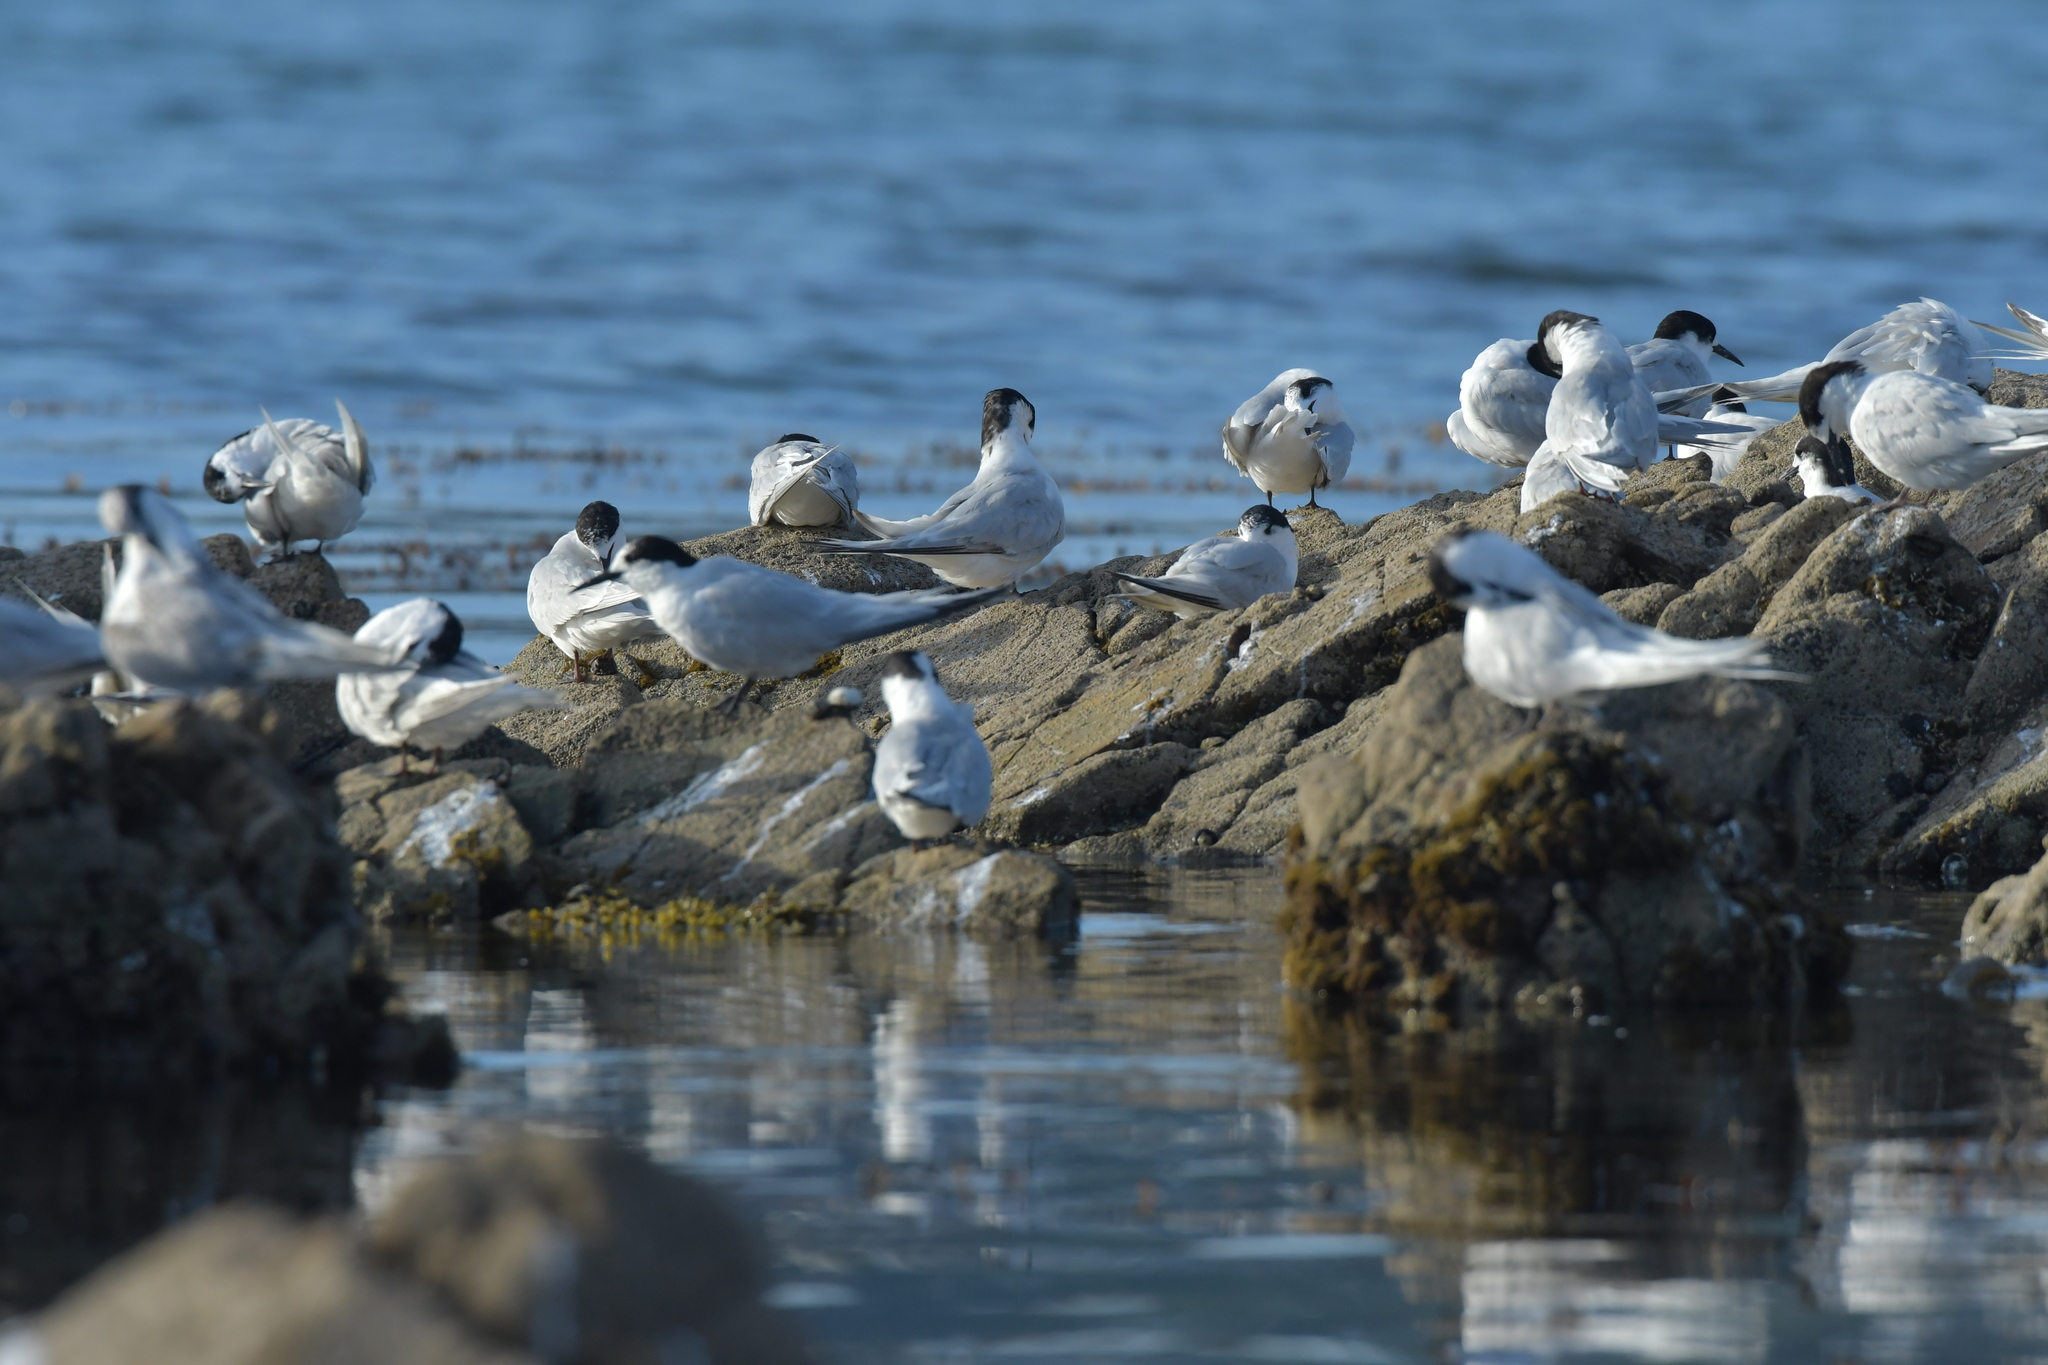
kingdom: Animalia
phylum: Chordata
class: Aves
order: Charadriiformes
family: Laridae
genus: Sterna
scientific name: Sterna striata
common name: White-fronted tern
